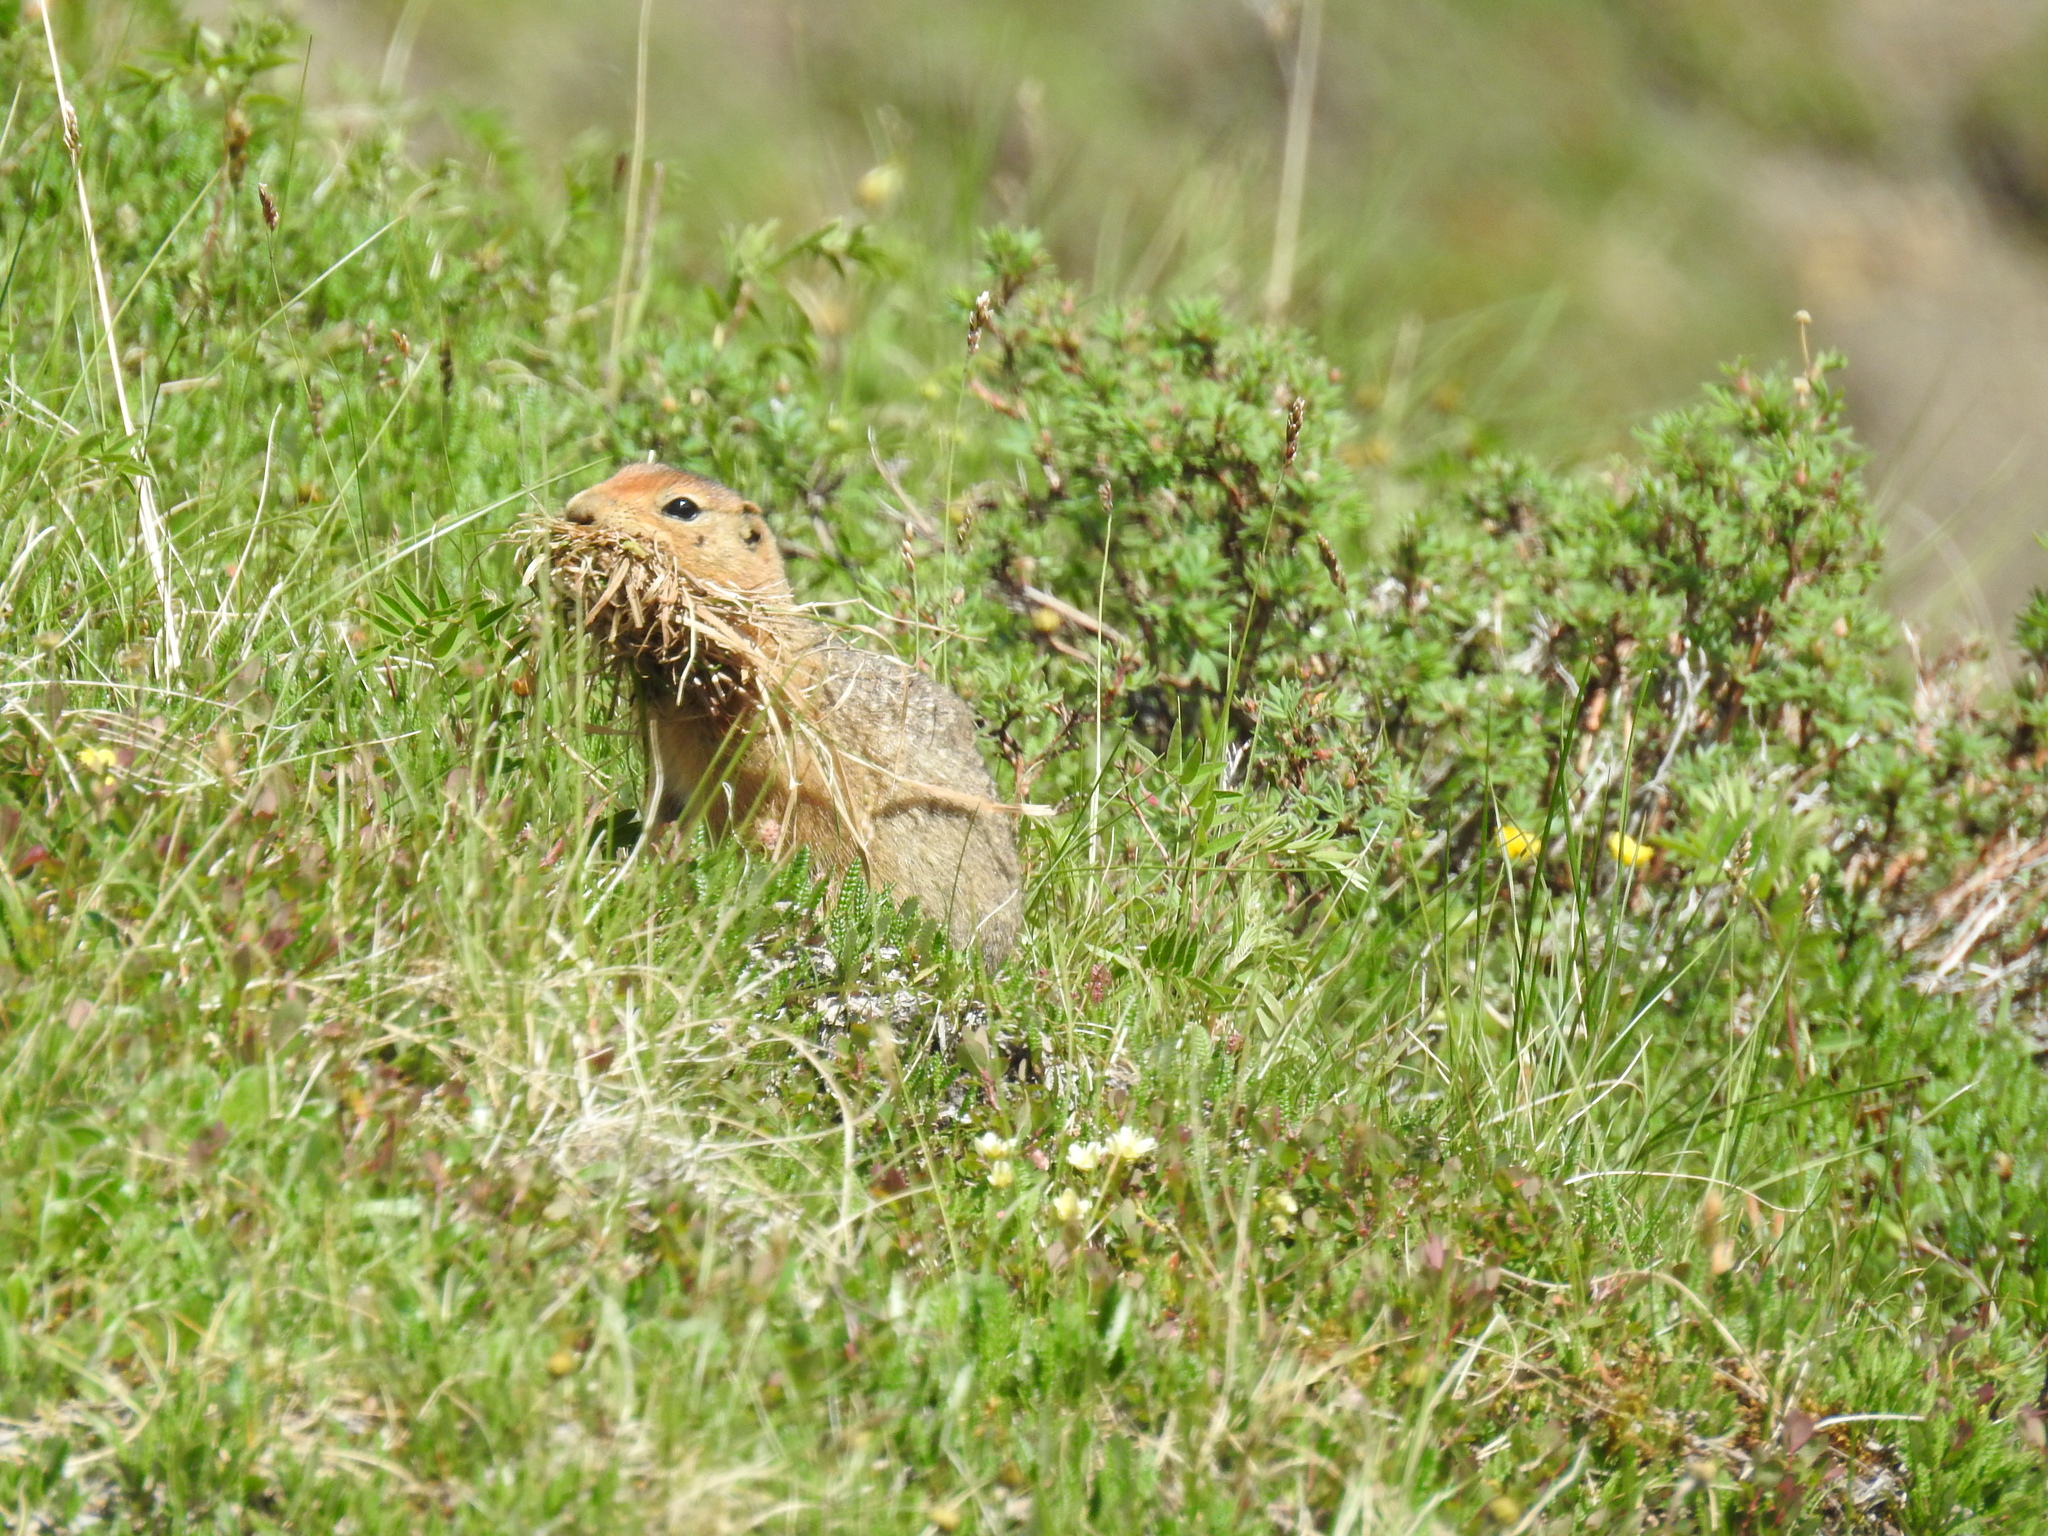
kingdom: Animalia
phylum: Chordata
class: Mammalia
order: Rodentia
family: Sciuridae
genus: Urocitellus
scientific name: Urocitellus parryii
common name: Arctic ground squirrel
